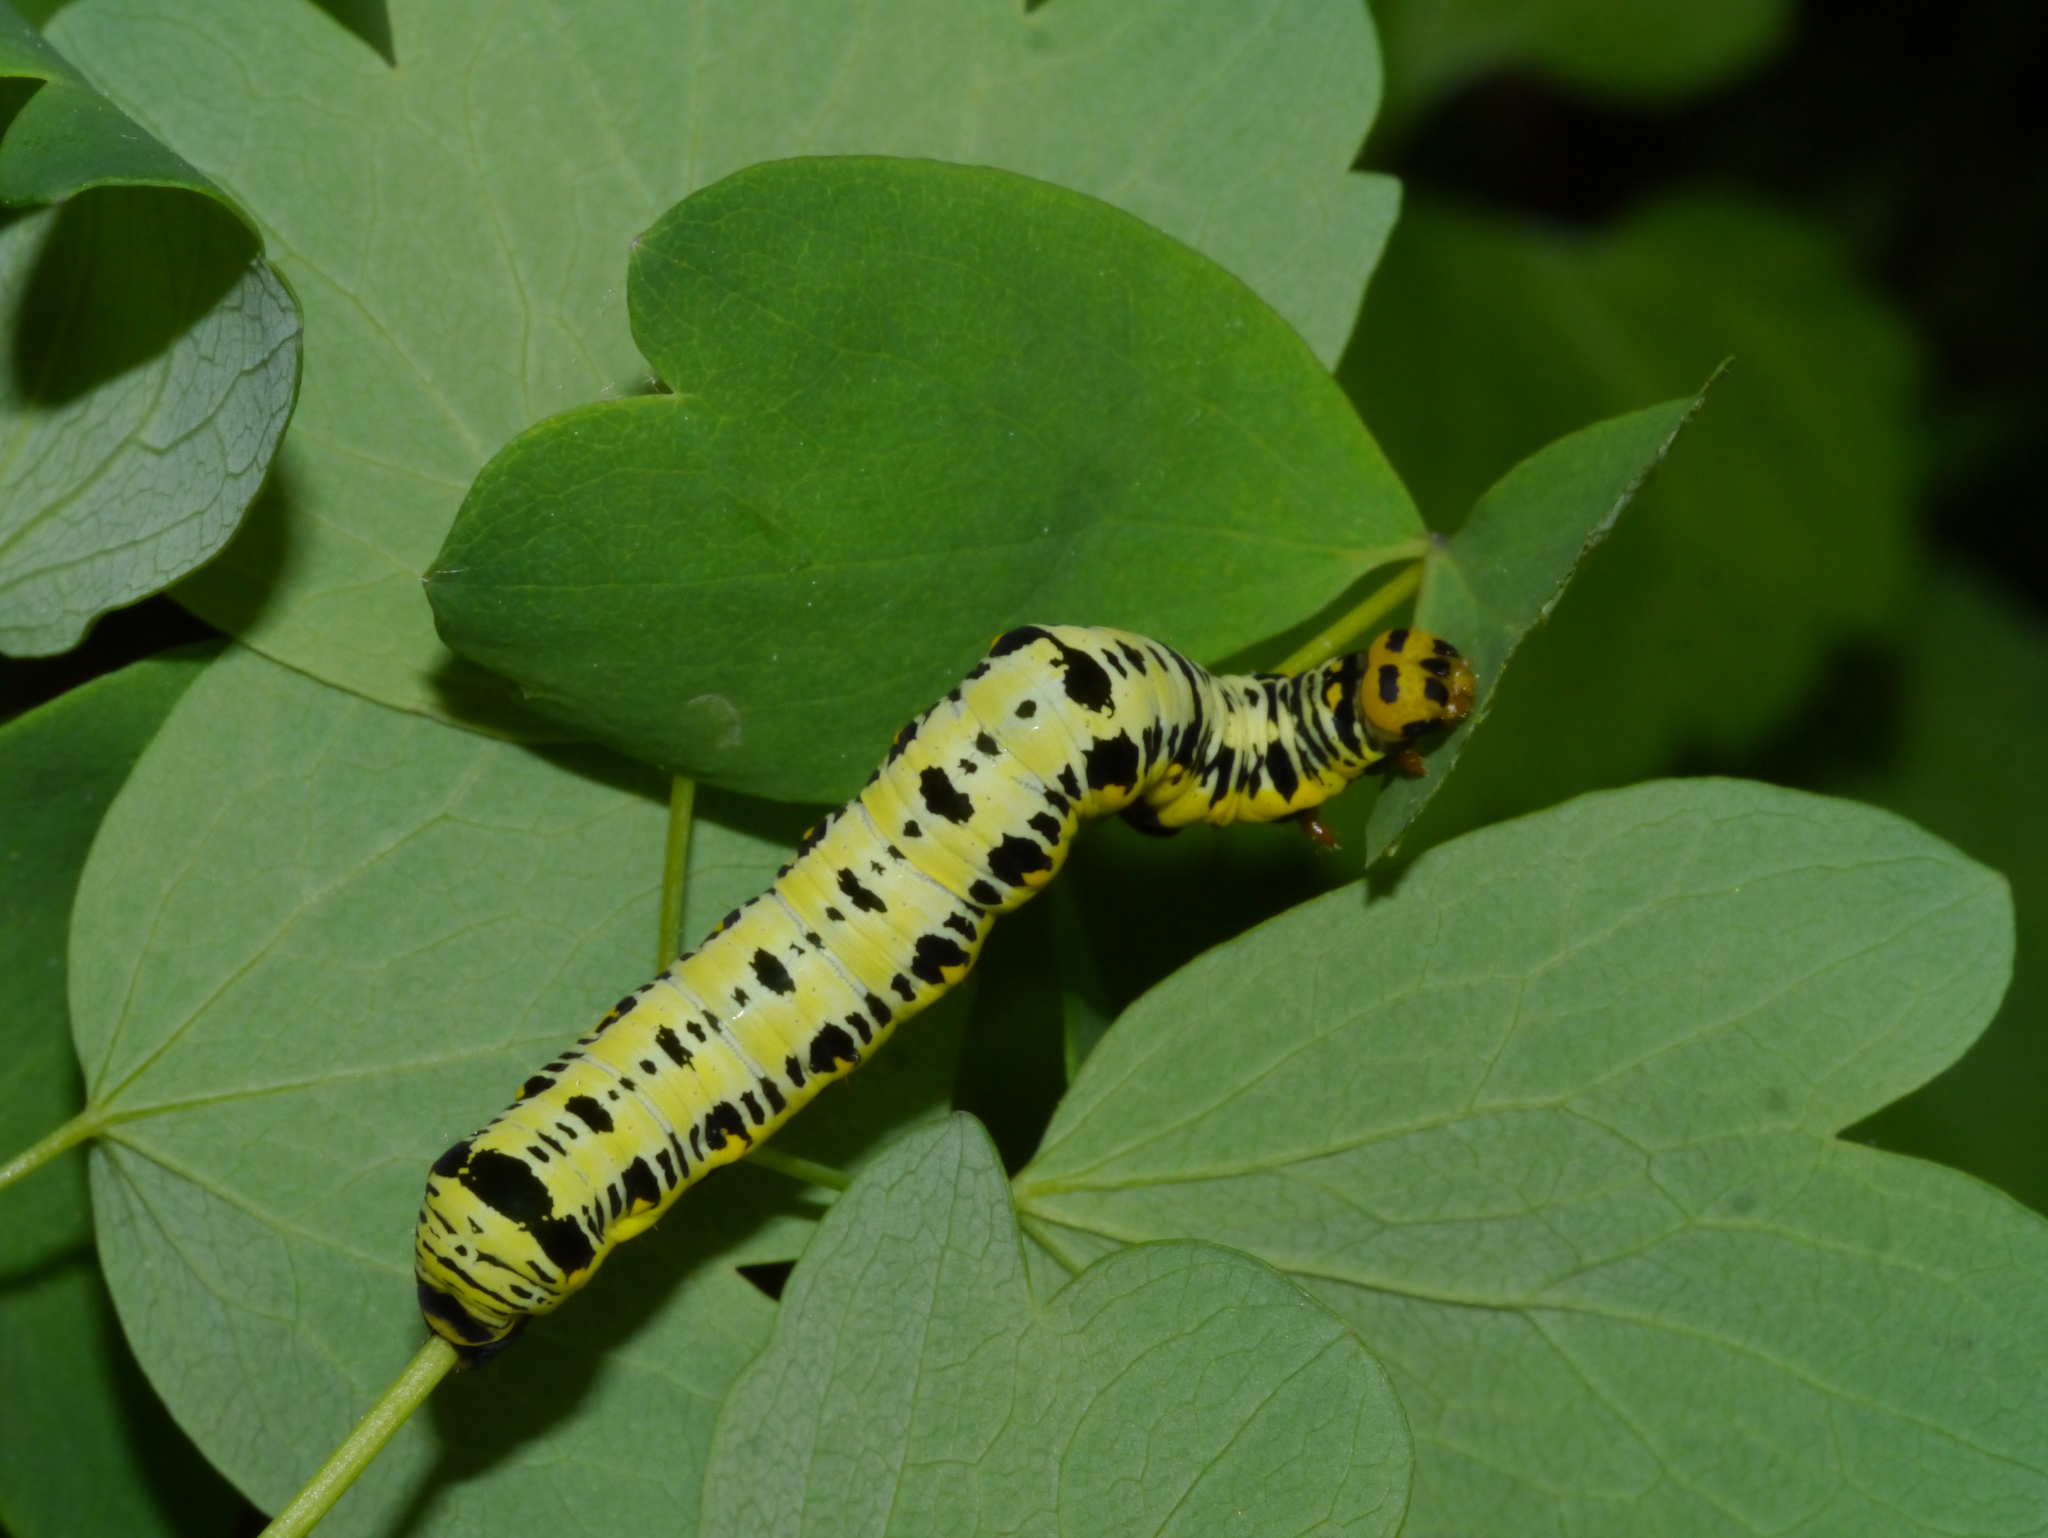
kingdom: Animalia
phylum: Arthropoda
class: Insecta
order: Lepidoptera
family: Erebidae
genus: Calyptra
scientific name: Calyptra canadensis
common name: Canadian owlet
